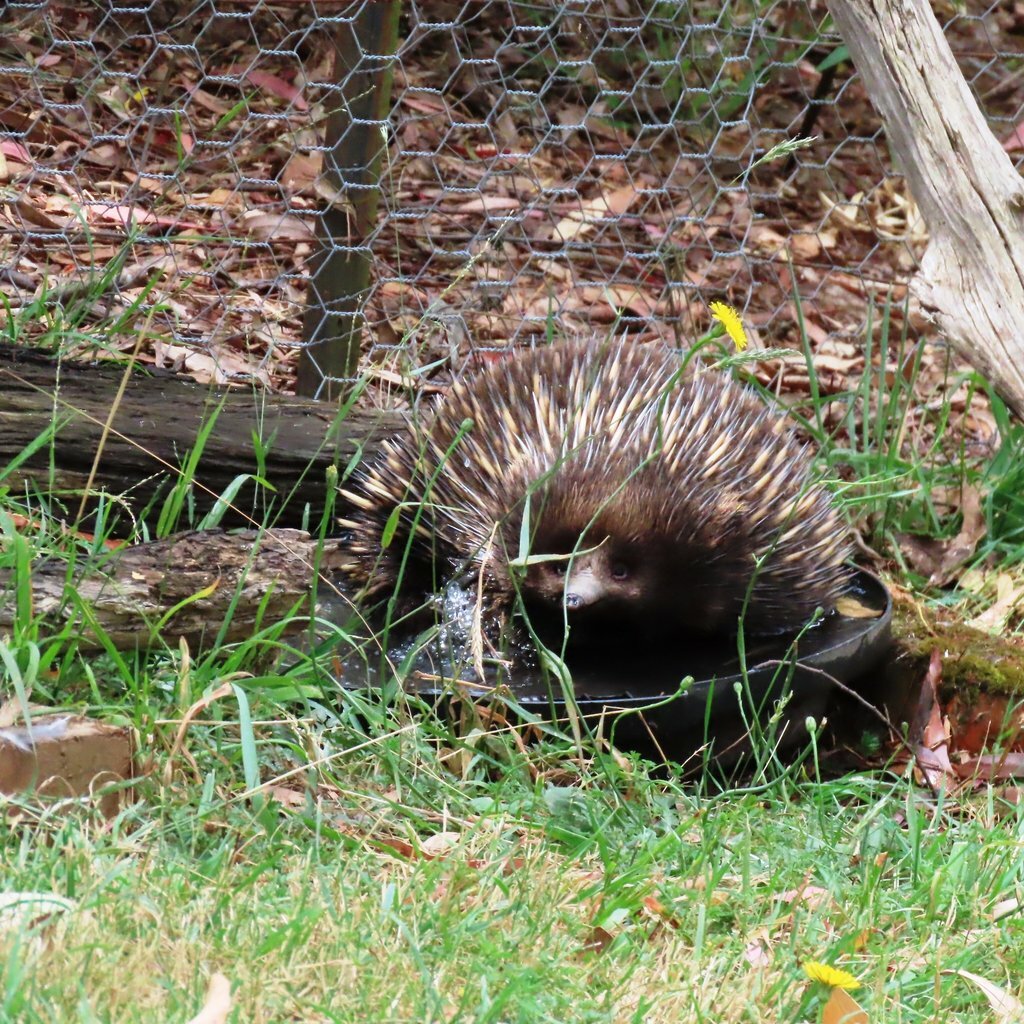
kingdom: Animalia
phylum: Chordata
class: Mammalia
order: Monotremata
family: Tachyglossidae
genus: Tachyglossus
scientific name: Tachyglossus aculeatus
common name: Short-beaked echidna
